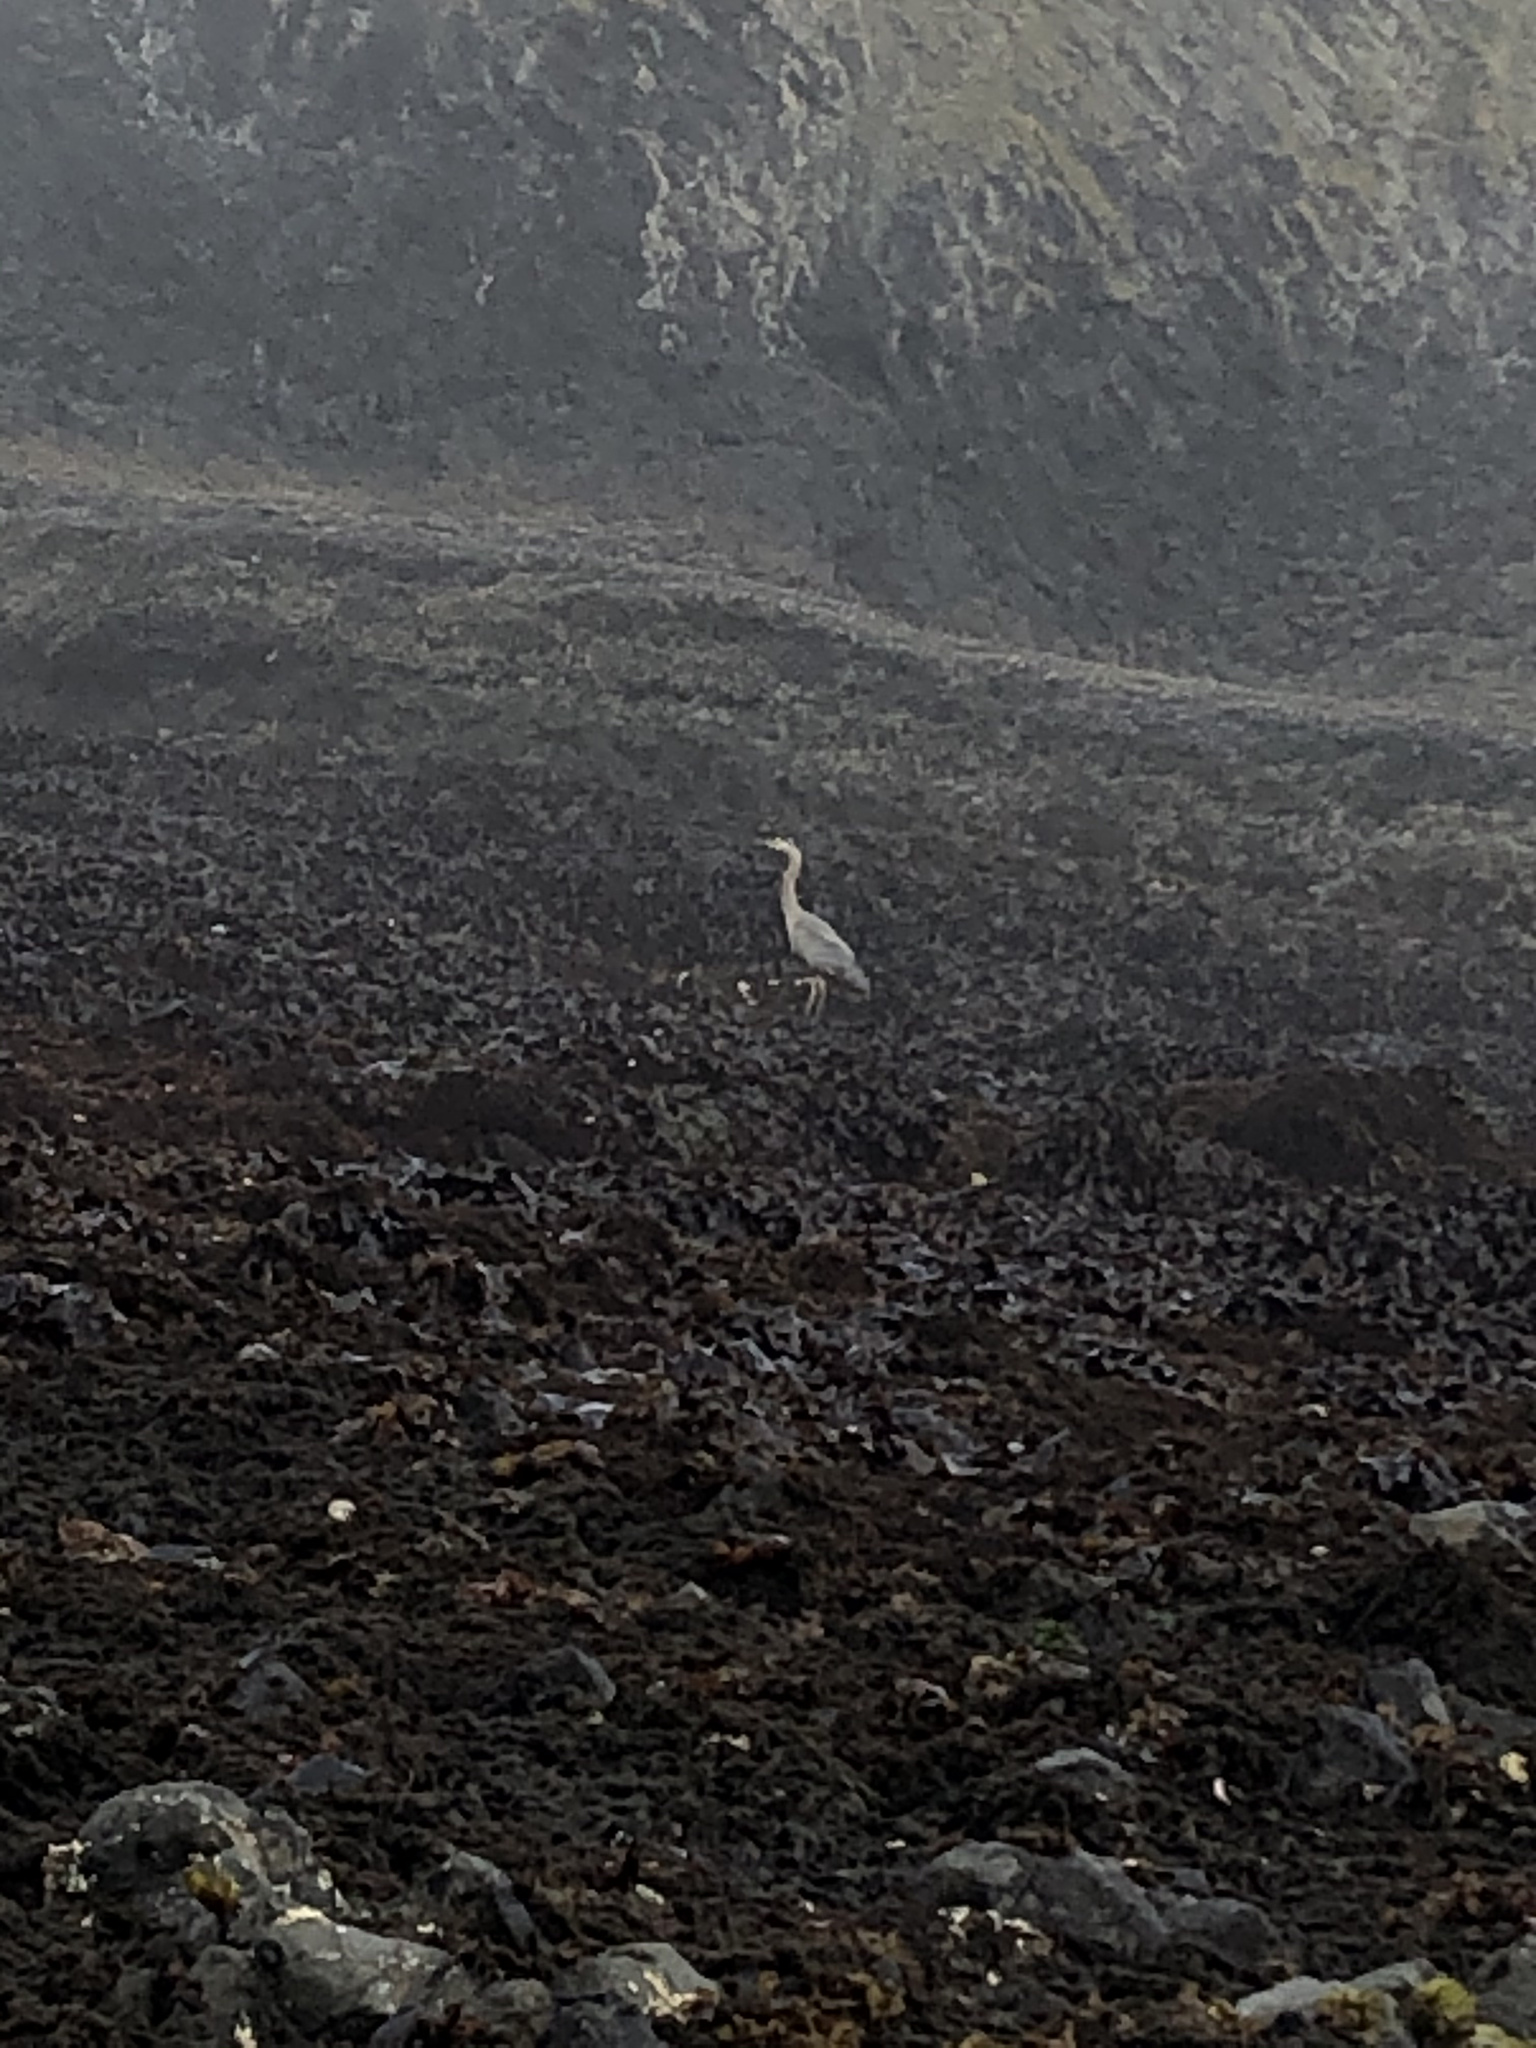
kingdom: Animalia
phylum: Chordata
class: Aves
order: Pelecaniformes
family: Ardeidae
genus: Ardea
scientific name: Ardea herodias
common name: Great blue heron
